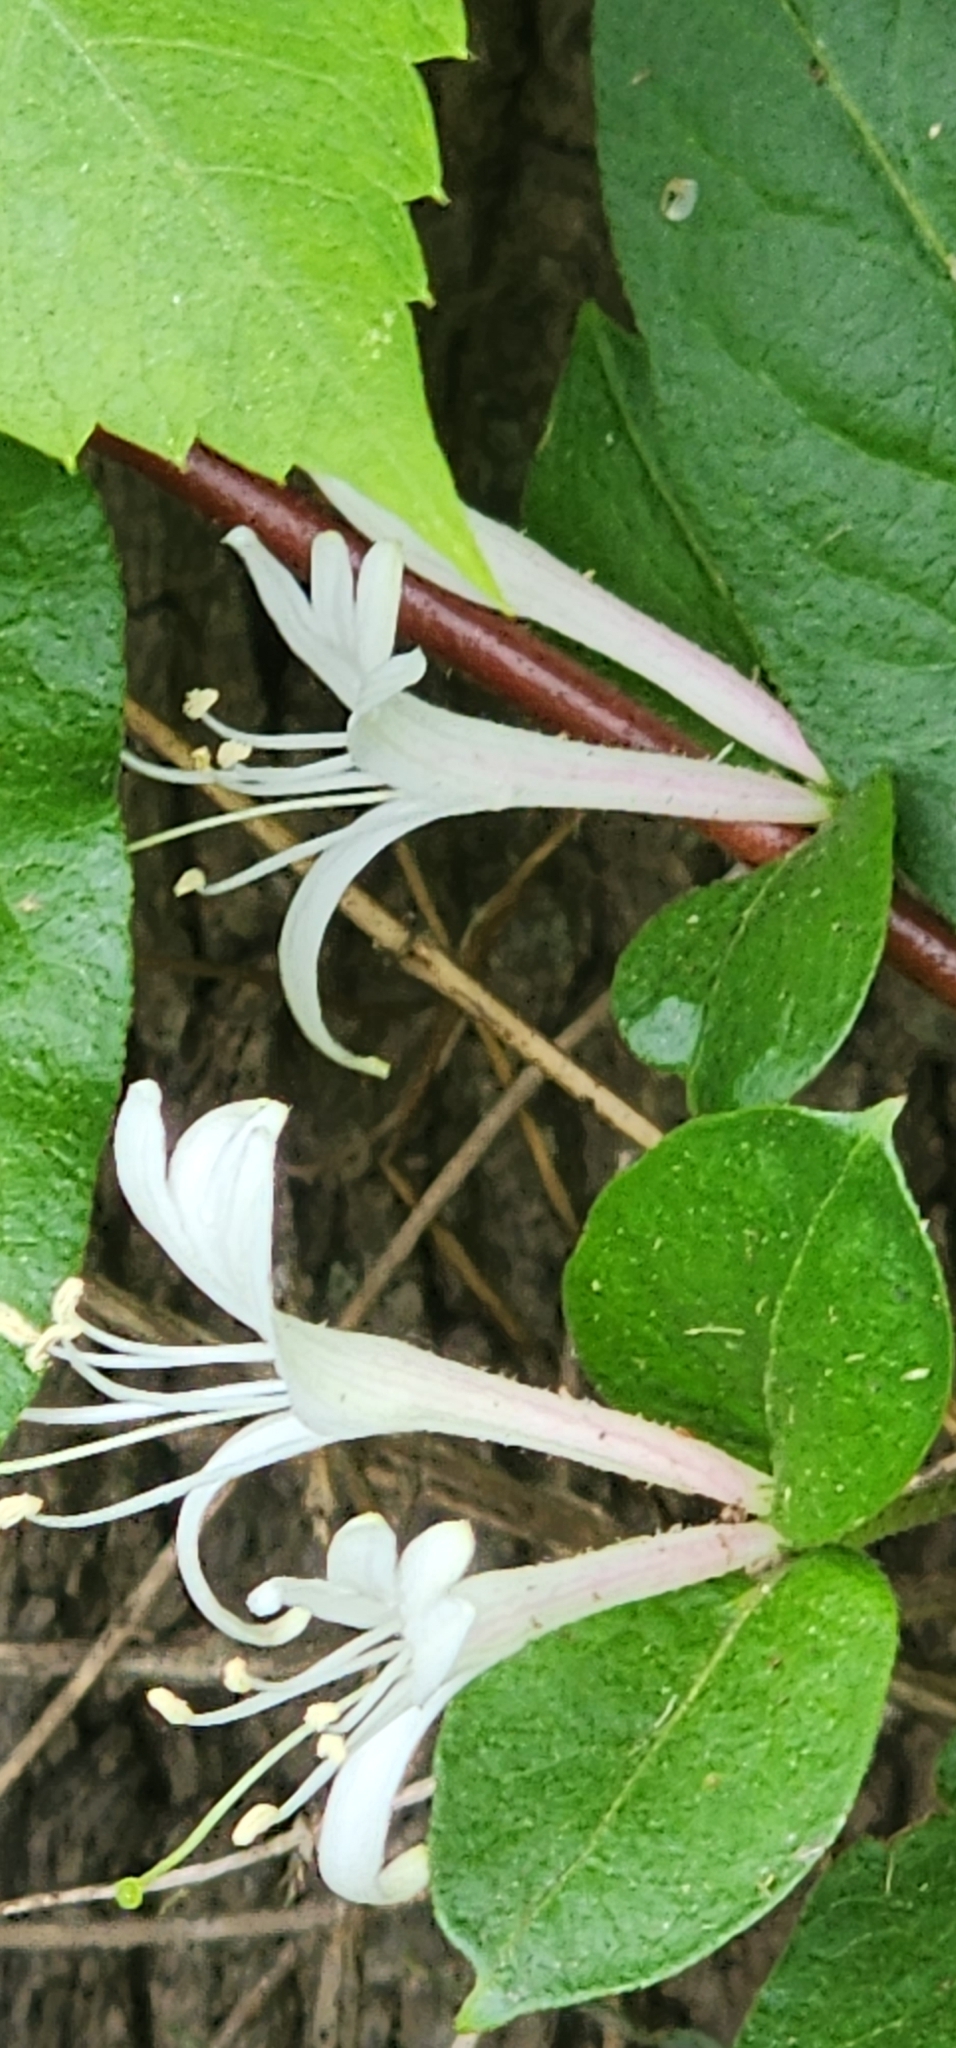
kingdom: Plantae
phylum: Tracheophyta
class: Magnoliopsida
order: Dipsacales
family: Caprifoliaceae
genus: Lonicera
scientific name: Lonicera japonica
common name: Japanese honeysuckle
